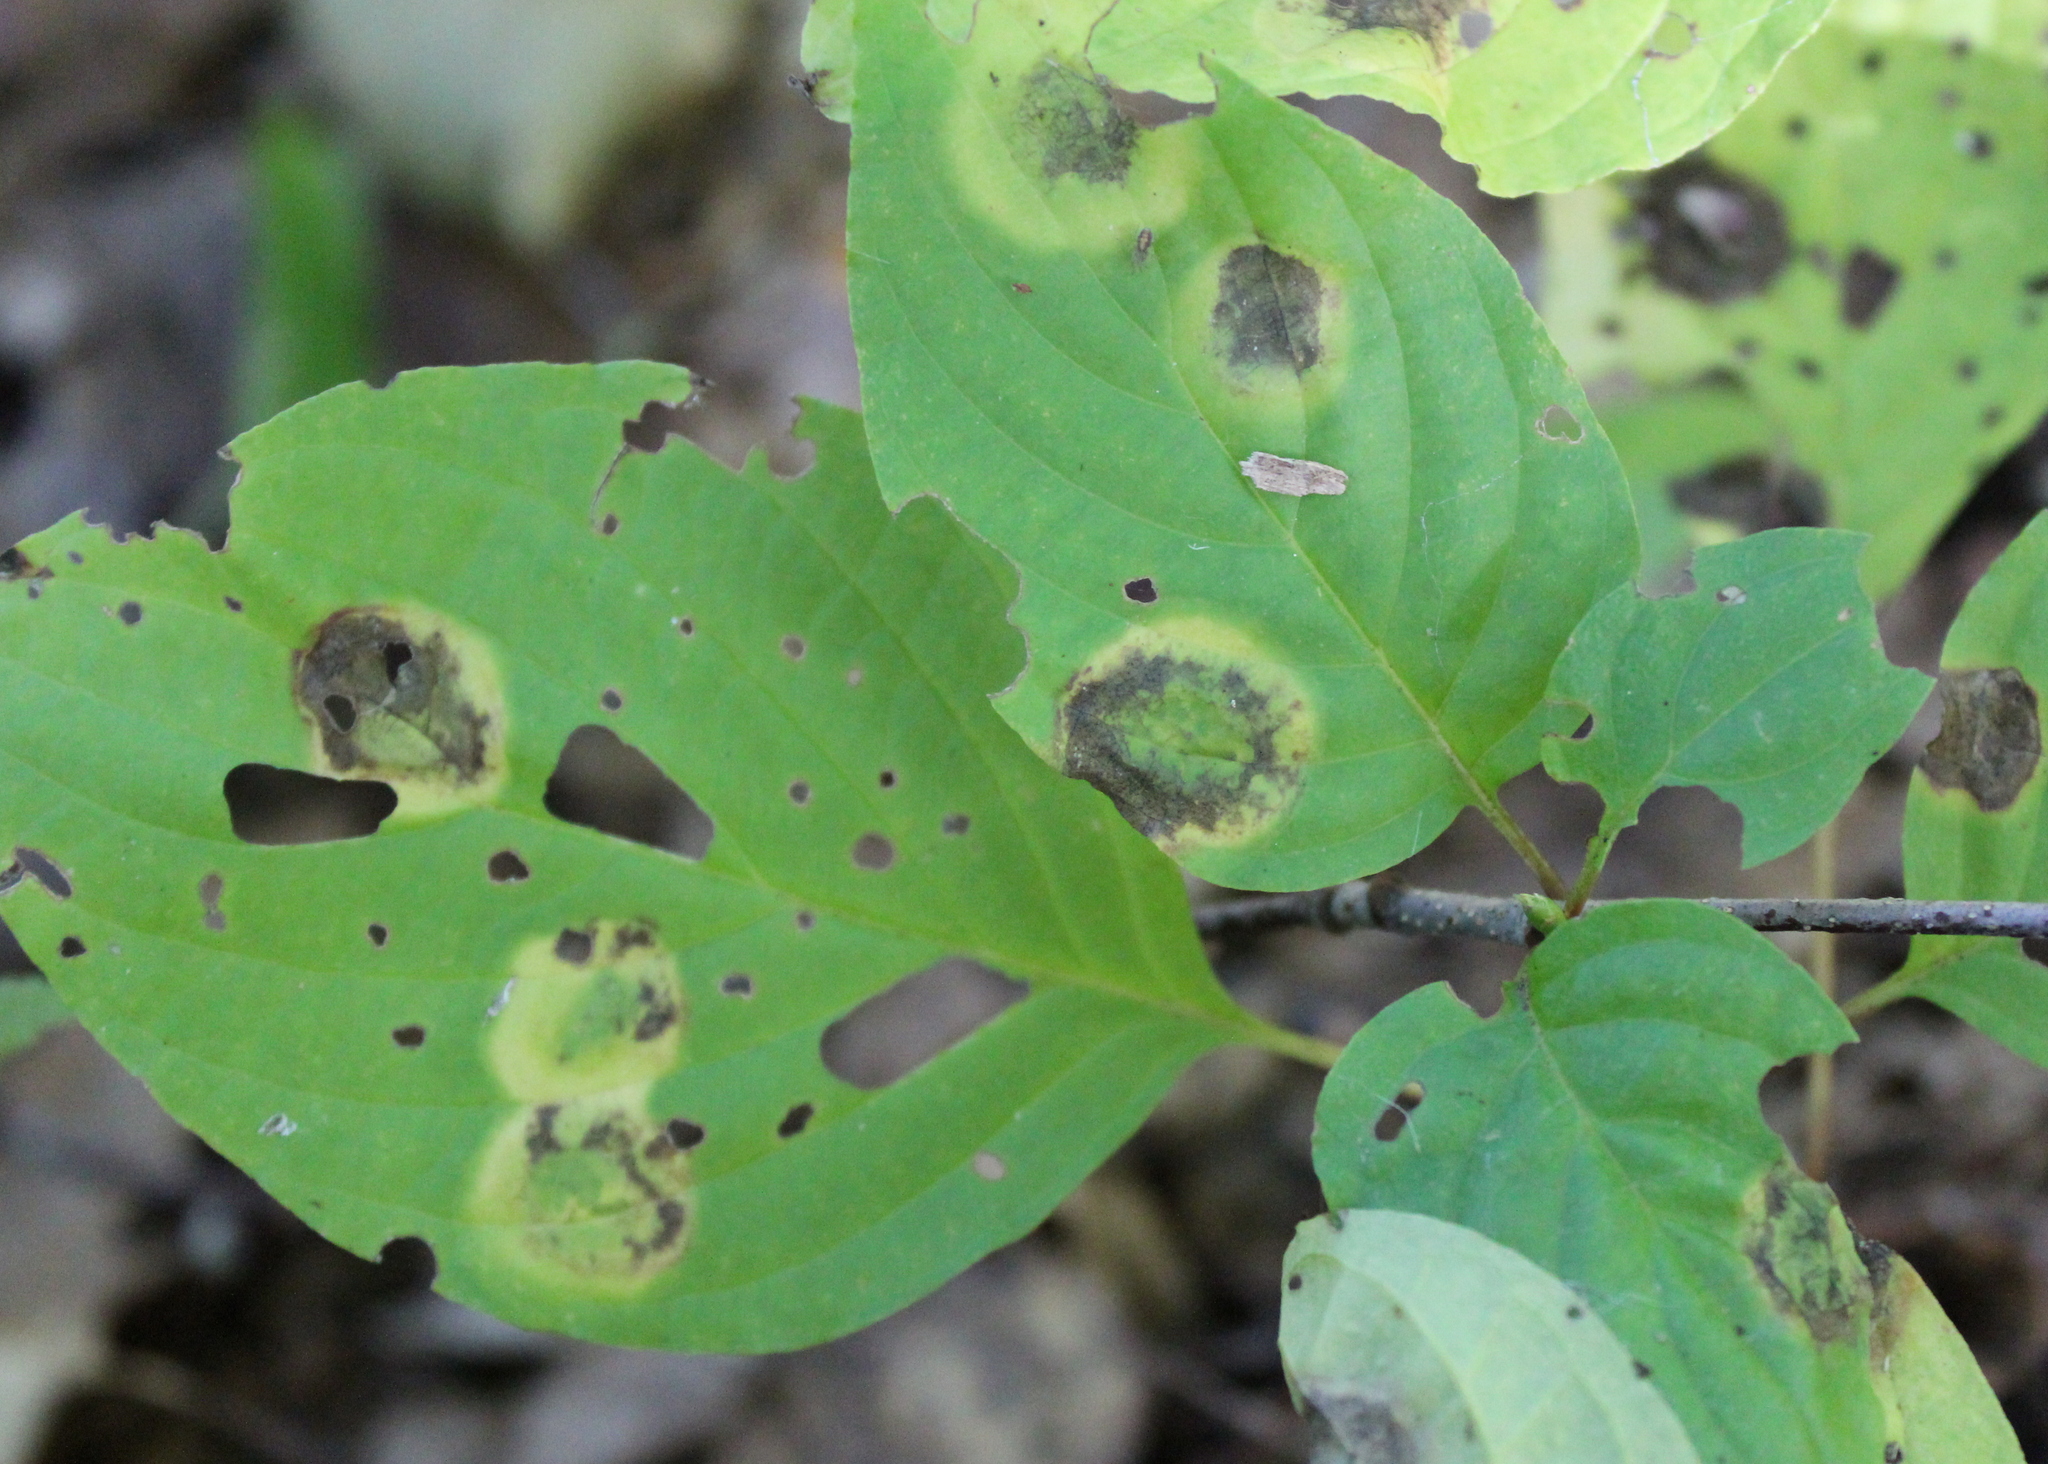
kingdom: Animalia
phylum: Arthropoda
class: Insecta
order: Diptera
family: Cecidomyiidae
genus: Parallelodiplosis
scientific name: Parallelodiplosis subtruncata
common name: Dogwood eyespot gall midge
